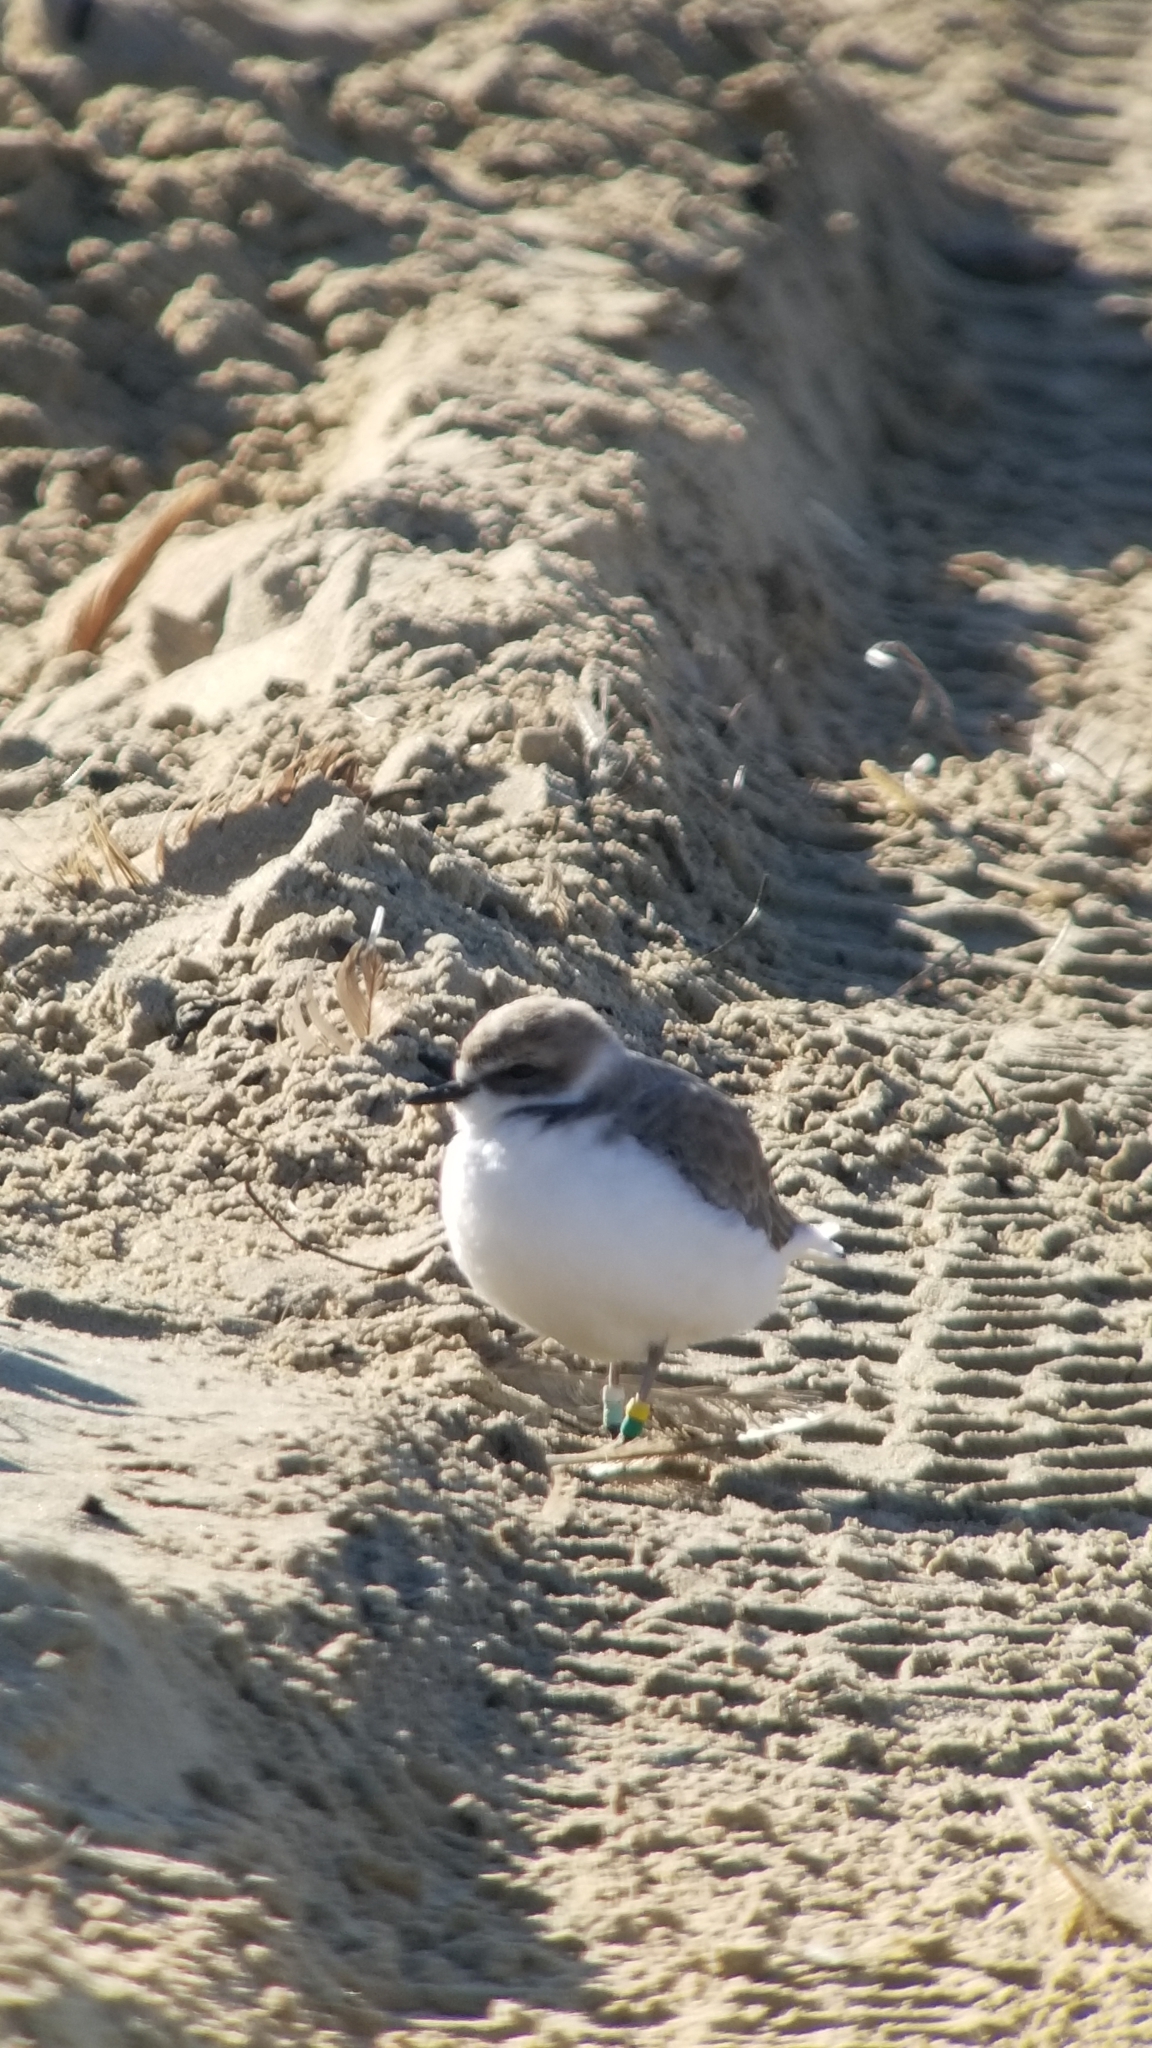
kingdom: Animalia
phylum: Chordata
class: Aves
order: Charadriiformes
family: Charadriidae
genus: Anarhynchus
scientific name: Anarhynchus
